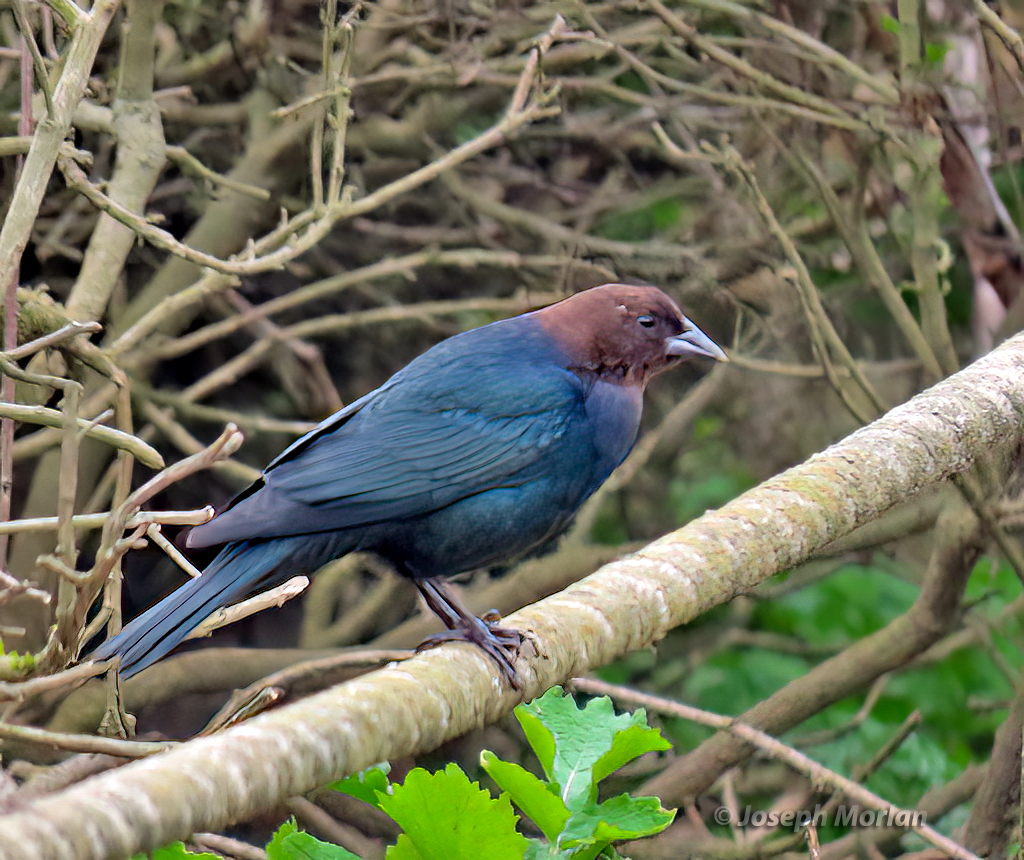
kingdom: Animalia
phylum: Chordata
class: Aves
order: Passeriformes
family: Icteridae
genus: Molothrus
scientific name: Molothrus ater
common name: Brown-headed cowbird
